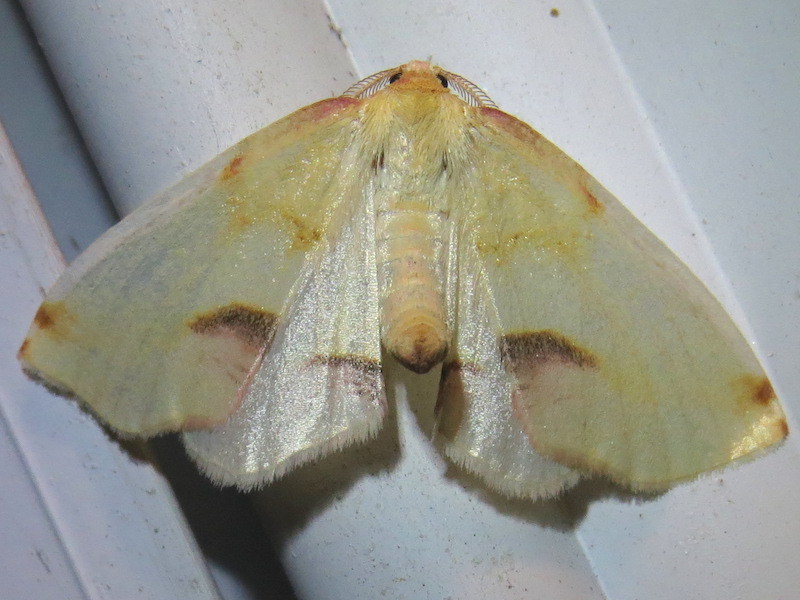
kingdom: Animalia
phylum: Arthropoda
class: Insecta
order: Lepidoptera
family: Geometridae
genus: Plagodis
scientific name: Plagodis serinaria
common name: Lemon plagodis
